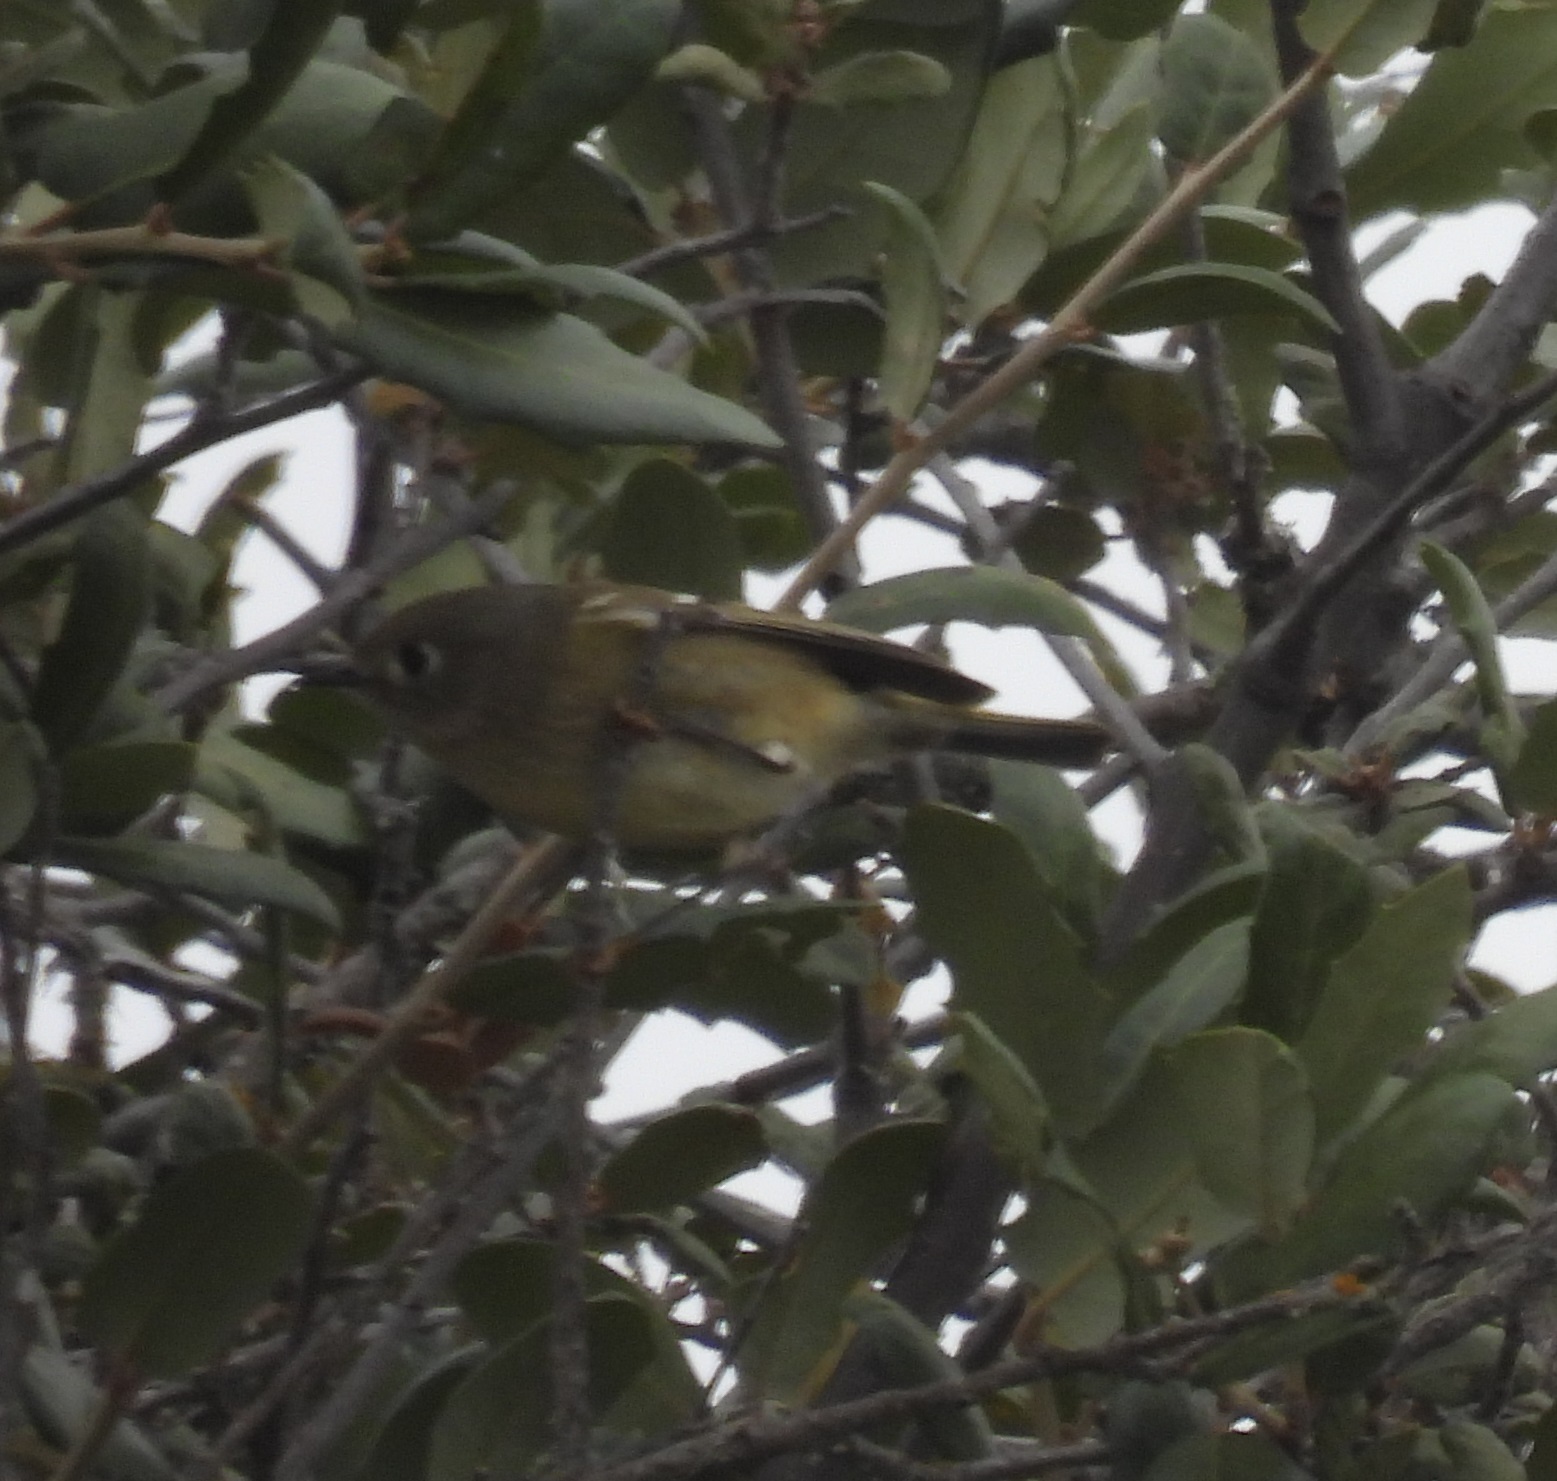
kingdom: Animalia
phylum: Chordata
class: Aves
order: Passeriformes
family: Regulidae
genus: Regulus
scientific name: Regulus calendula
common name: Ruby-crowned kinglet
